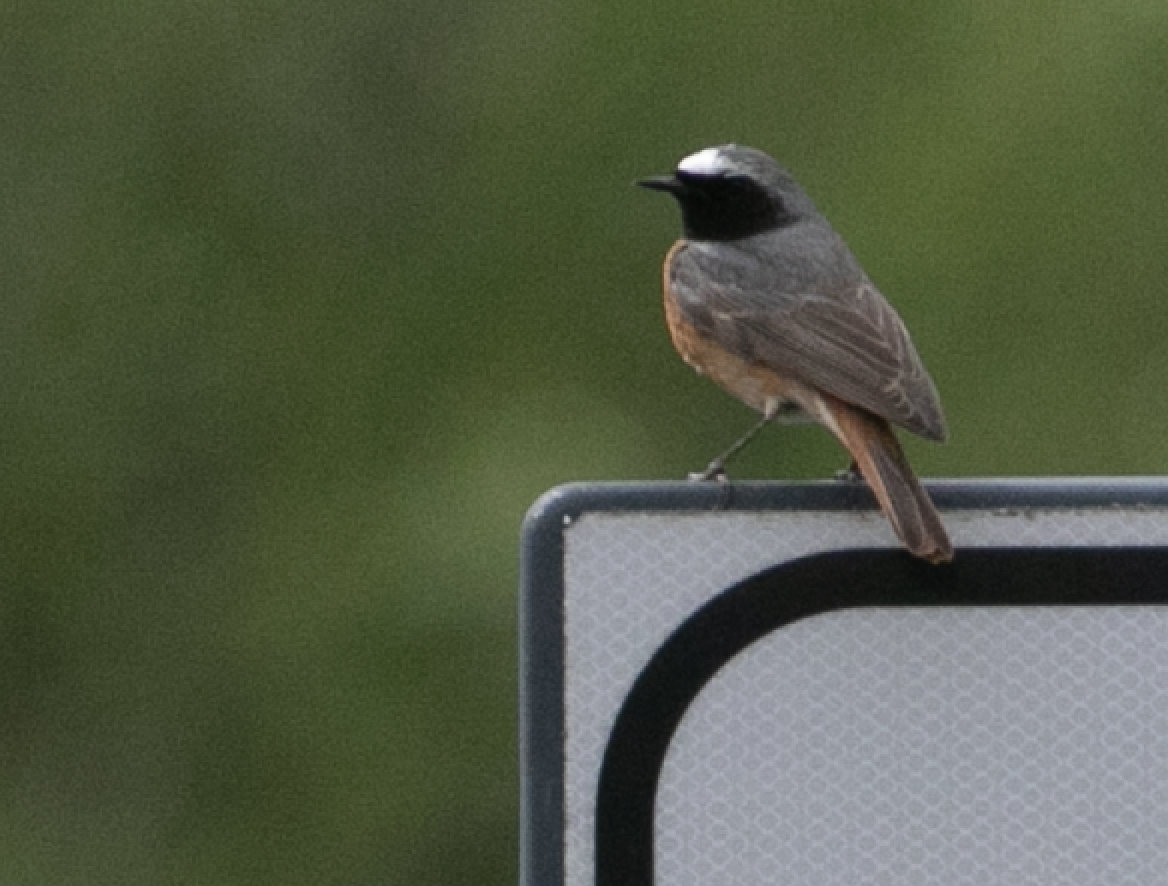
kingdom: Animalia
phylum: Chordata
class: Aves
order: Passeriformes
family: Muscicapidae
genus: Phoenicurus
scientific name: Phoenicurus phoenicurus
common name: Common redstart
